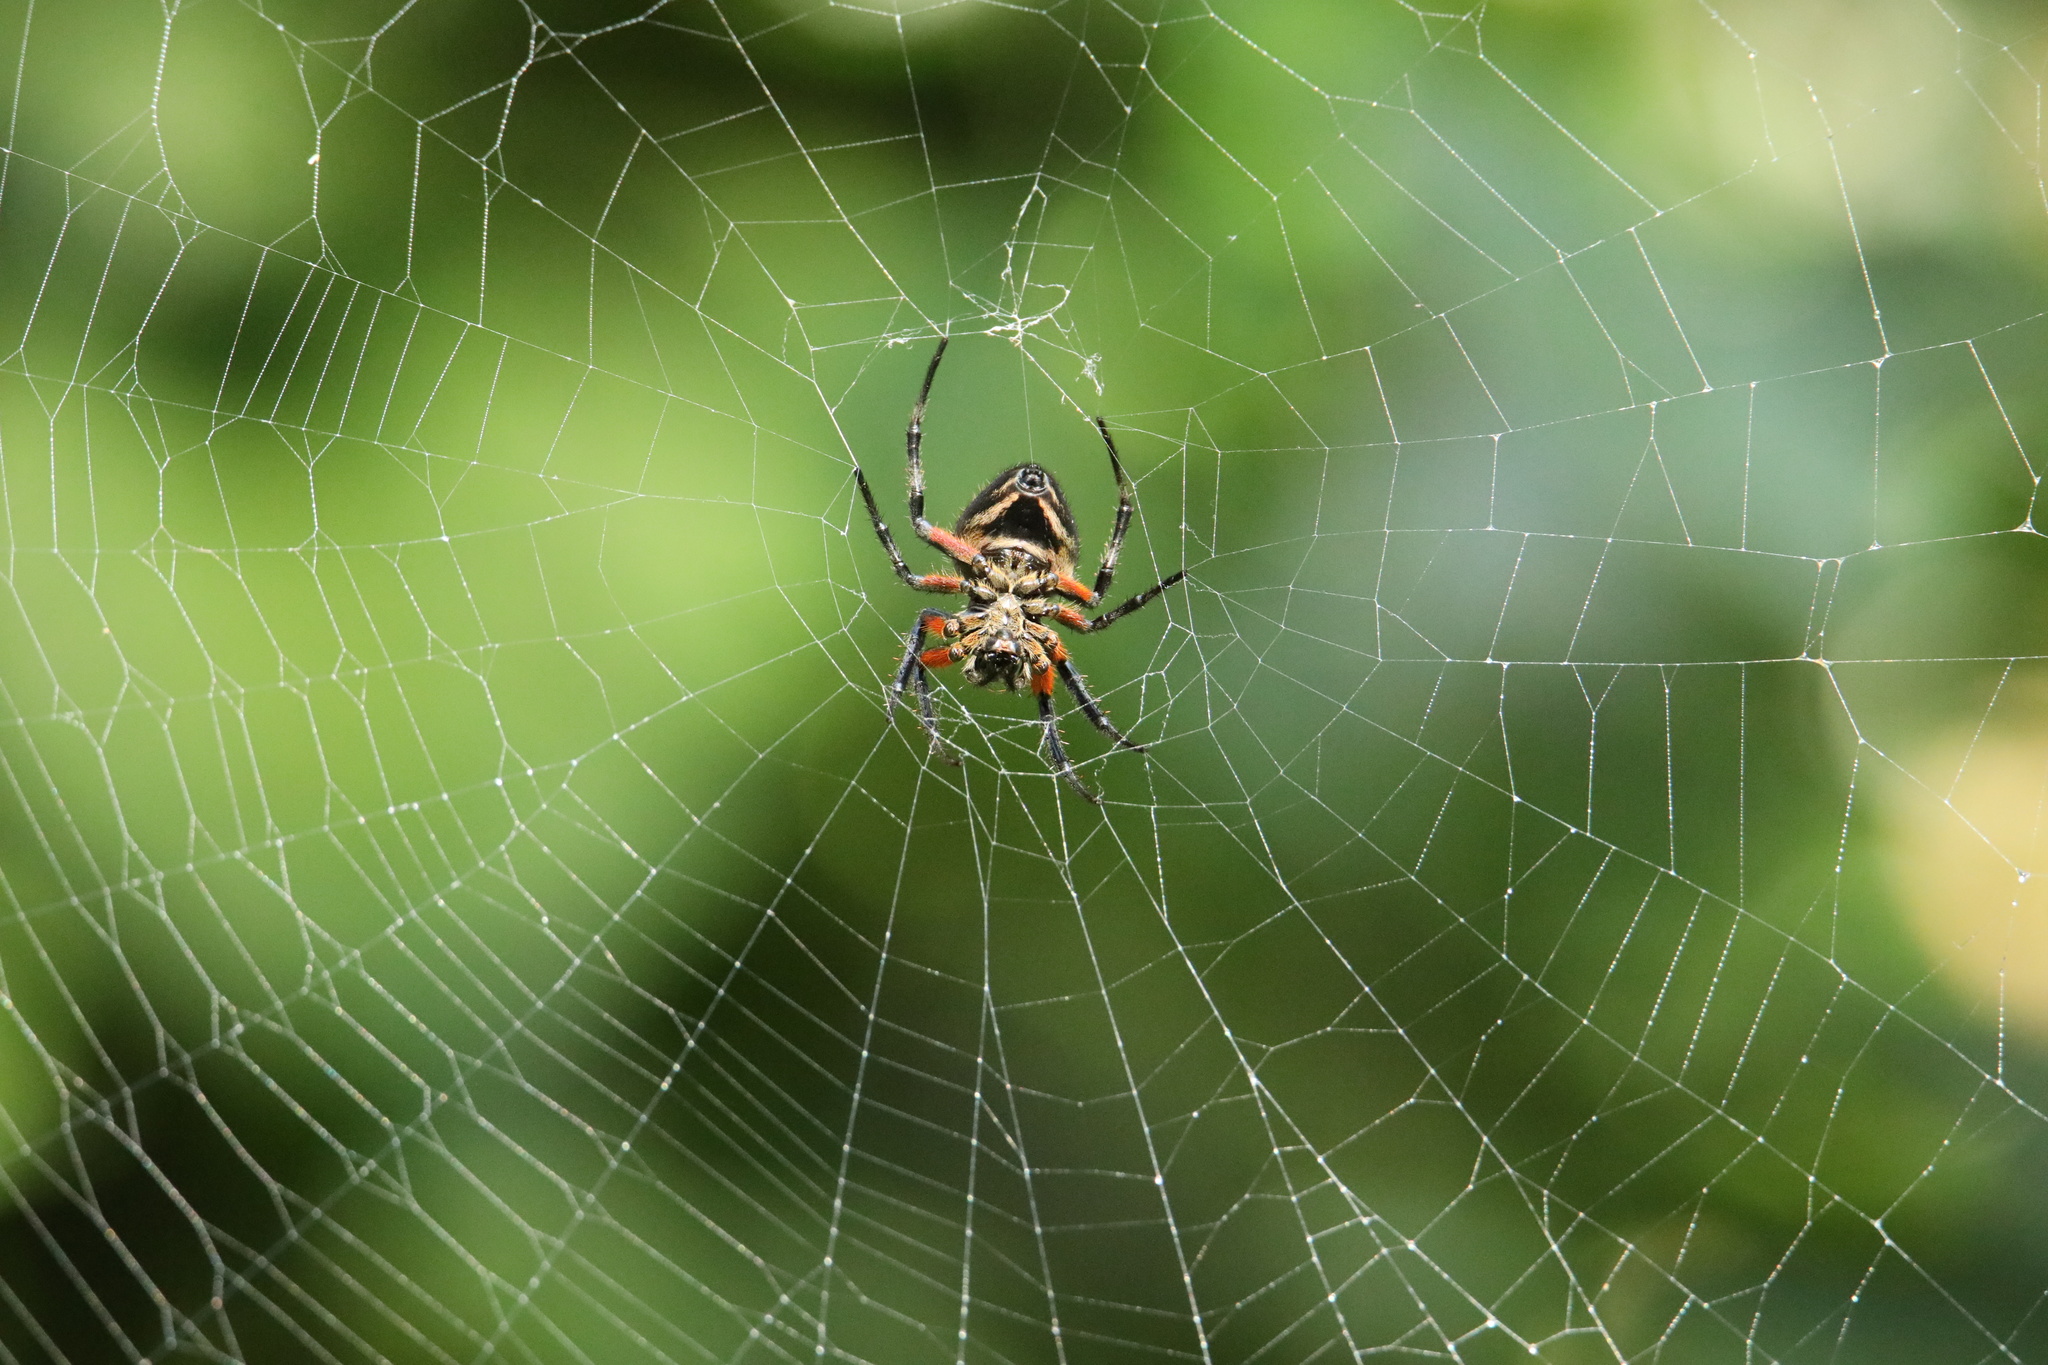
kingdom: Animalia
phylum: Arthropoda
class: Arachnida
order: Araneae
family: Araneidae
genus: Eriophora
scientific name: Eriophora fuliginea
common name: Orb weavers
